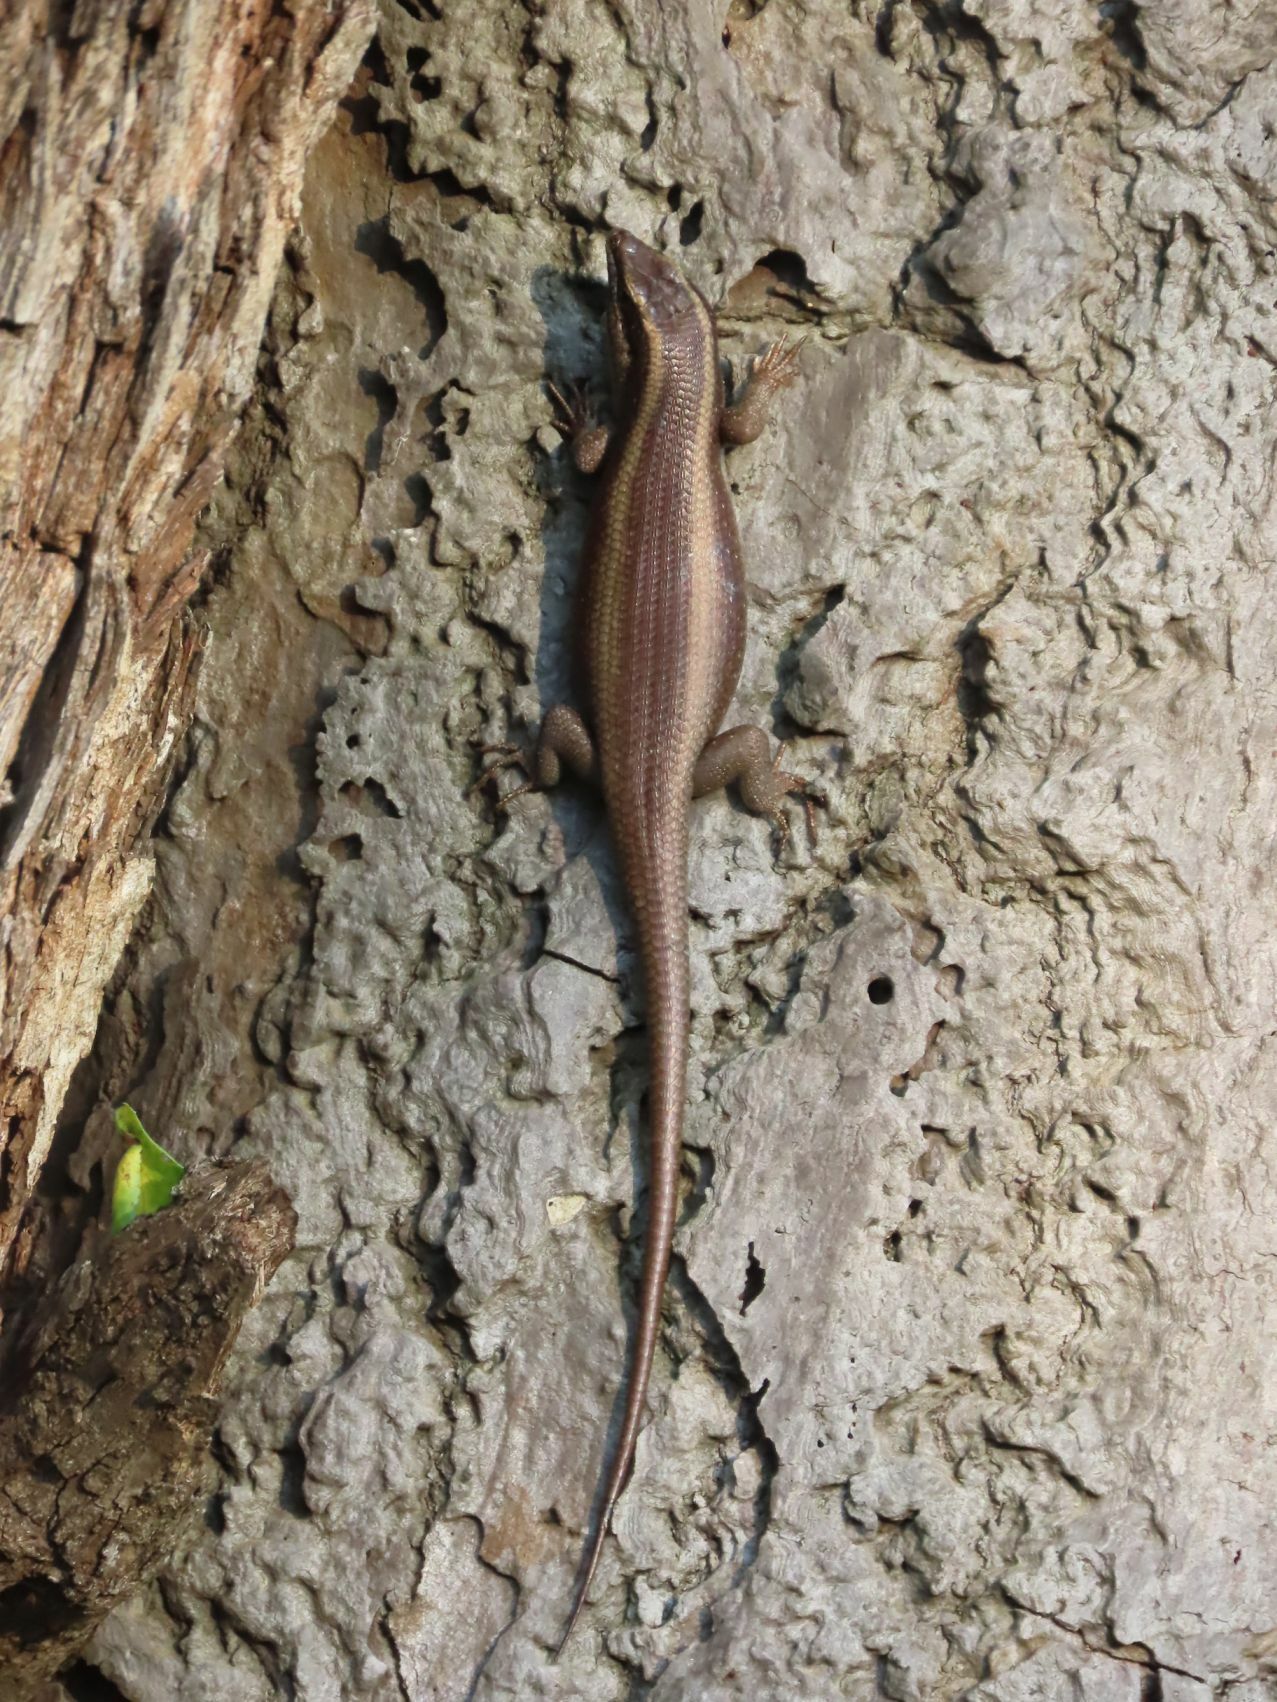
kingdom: Animalia
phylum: Chordata
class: Squamata
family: Scincidae
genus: Trachylepis
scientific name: Trachylepis striata
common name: African striped mabuya
